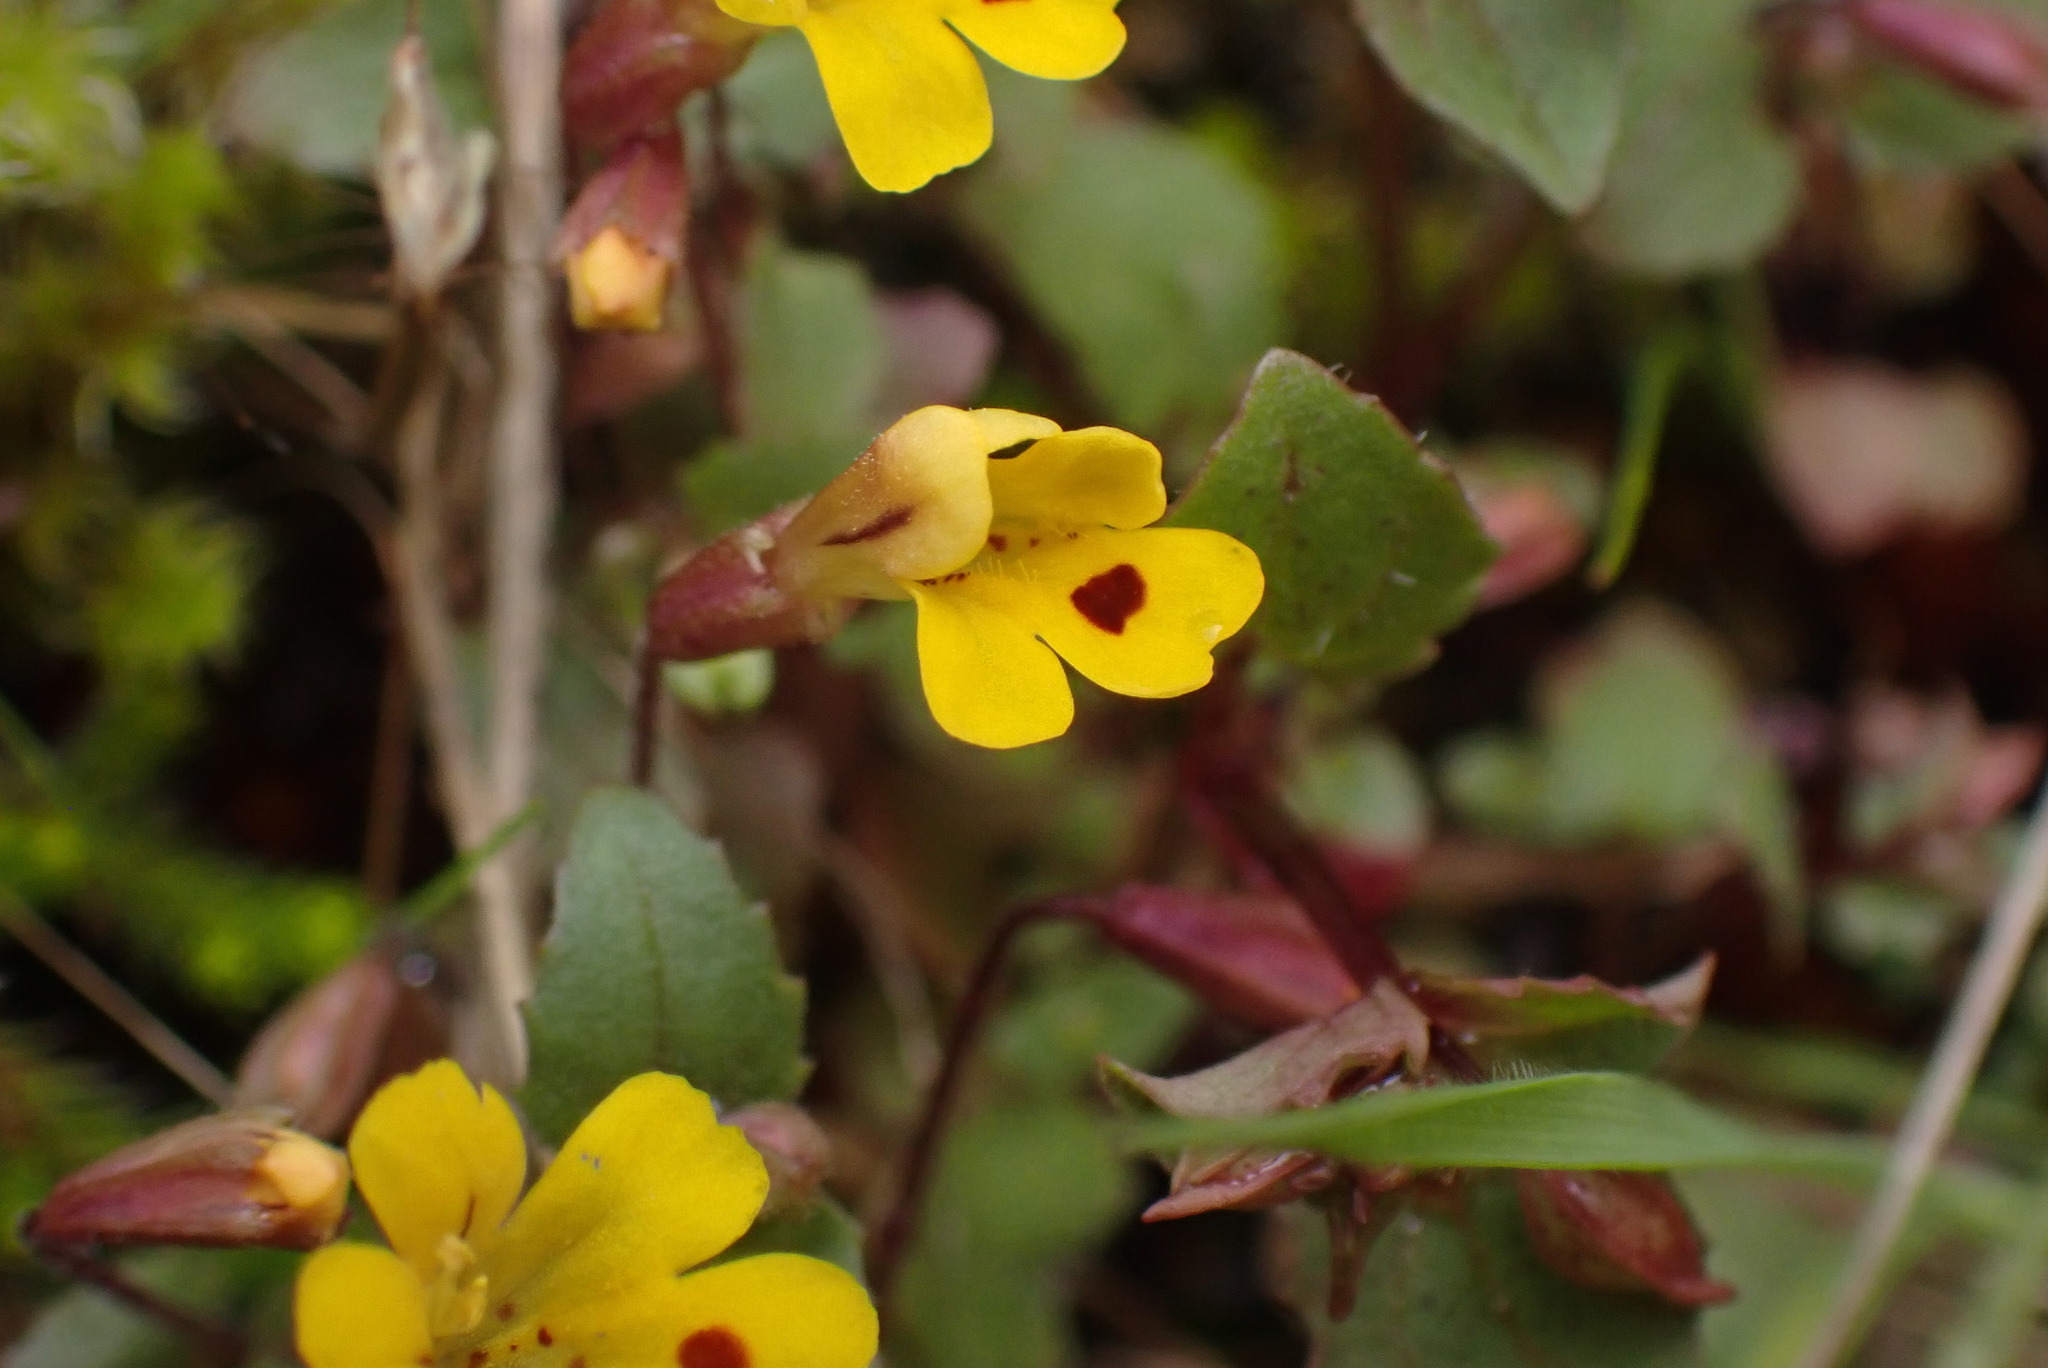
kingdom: Plantae
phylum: Tracheophyta
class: Magnoliopsida
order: Lamiales
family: Phrymaceae
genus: Erythranthe
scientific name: Erythranthe alsinoides
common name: Chickweed monkeyflower
